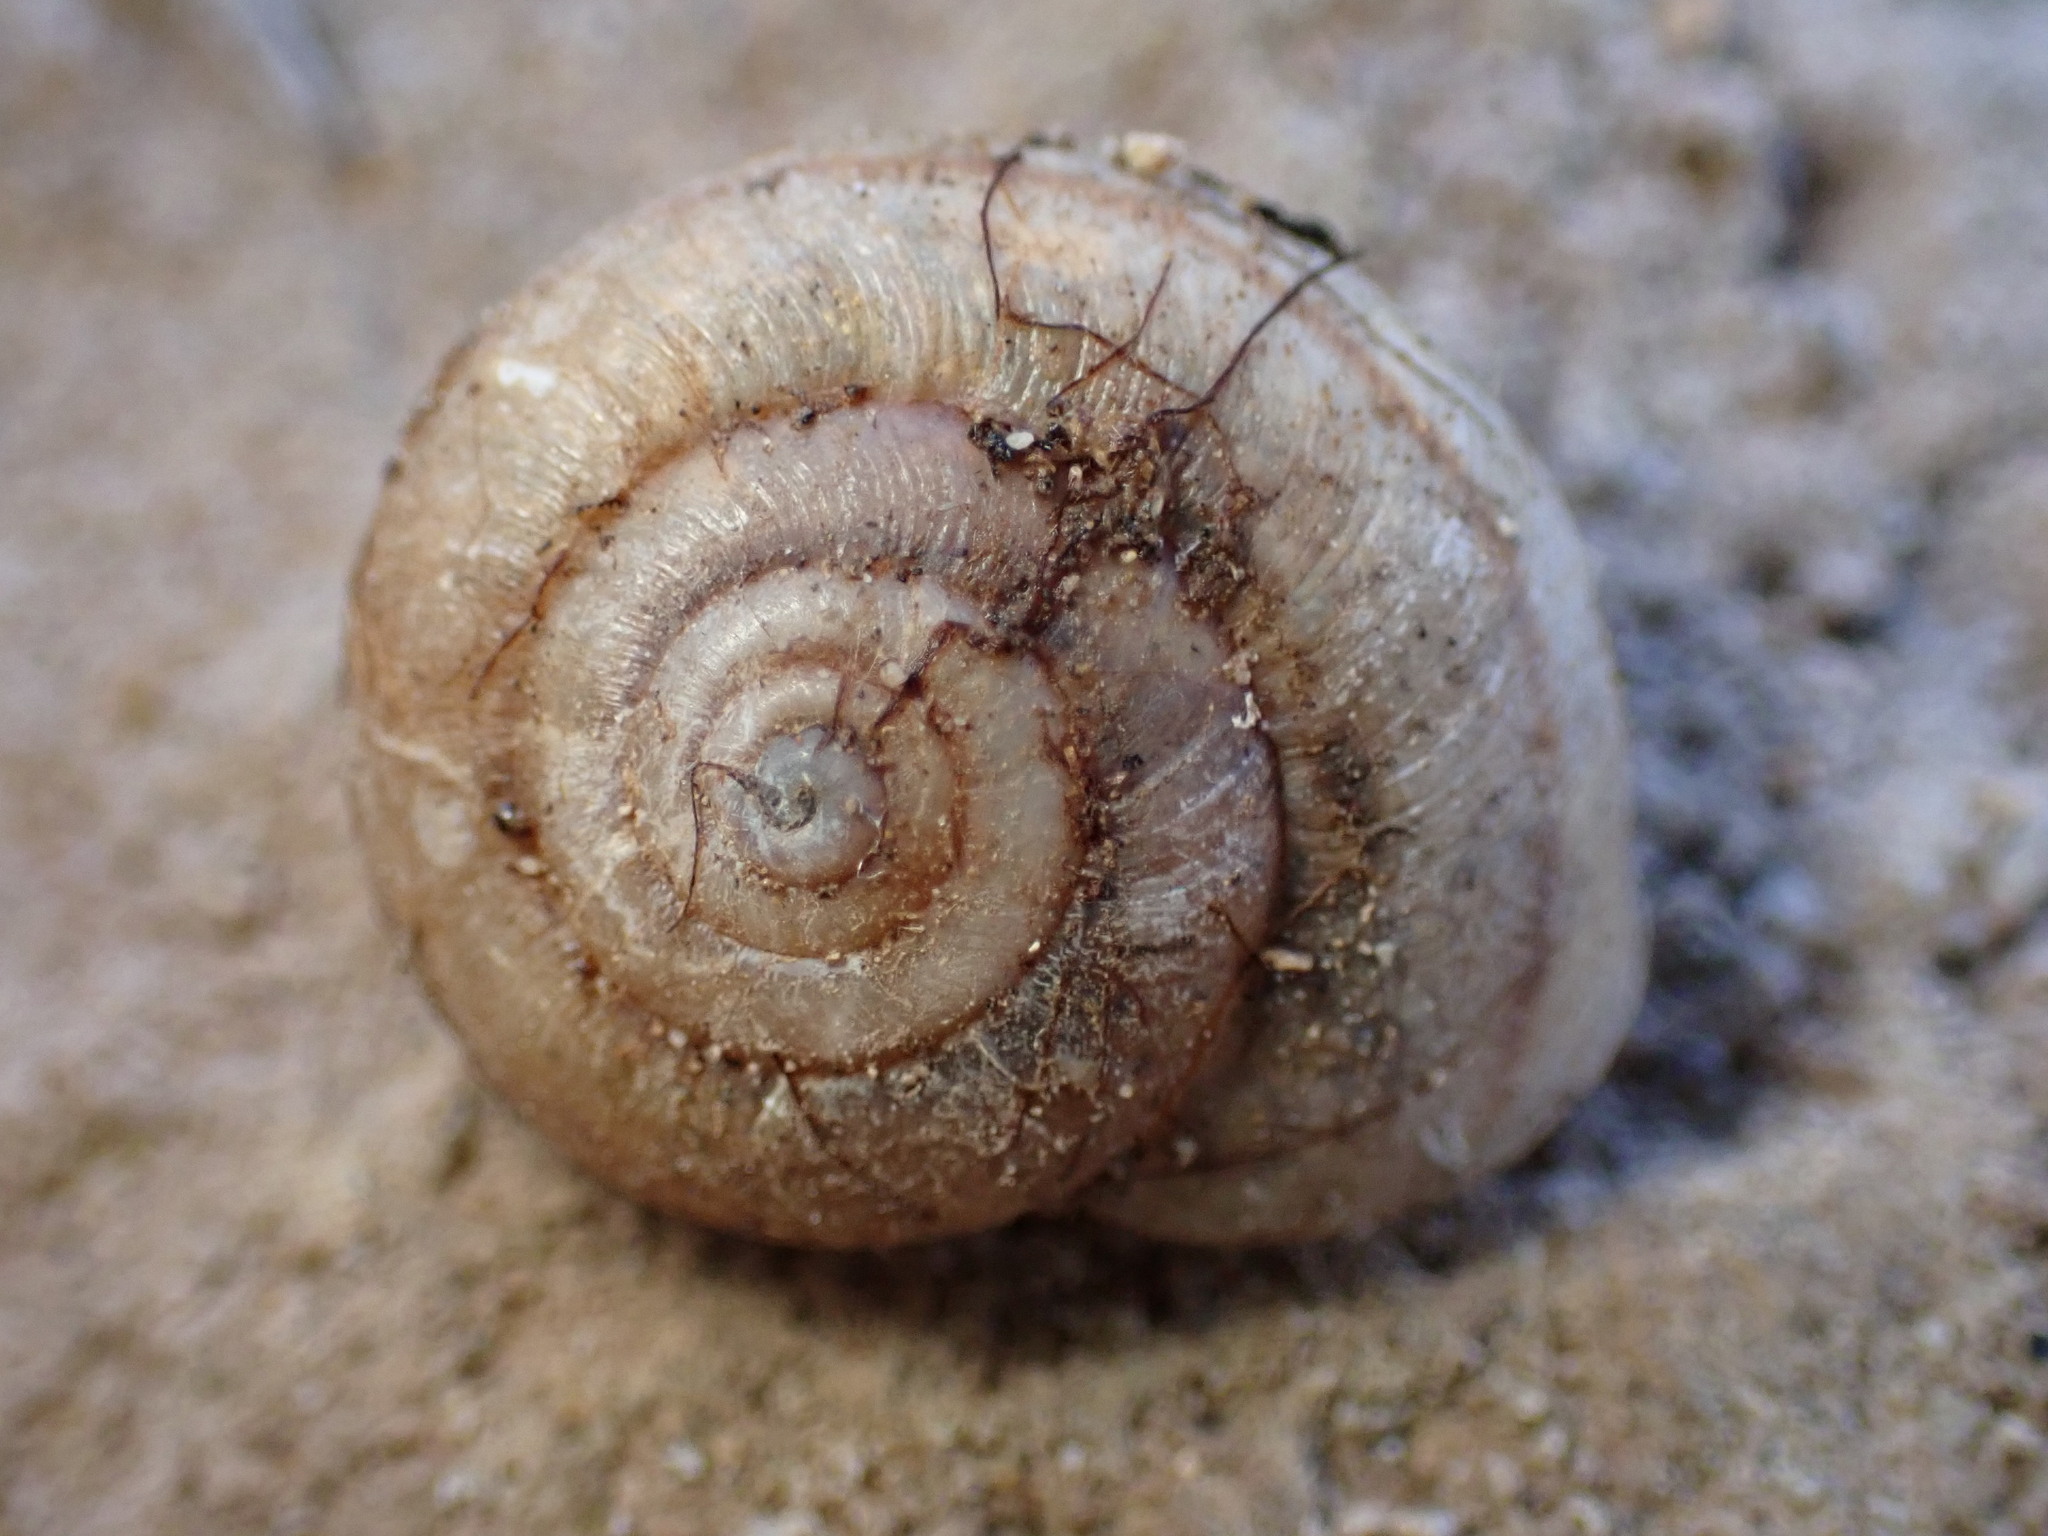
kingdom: Animalia
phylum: Mollusca
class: Gastropoda
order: Stylommatophora
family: Xanthonychidae
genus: Helminthoglypta
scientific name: Helminthoglypta reediana
